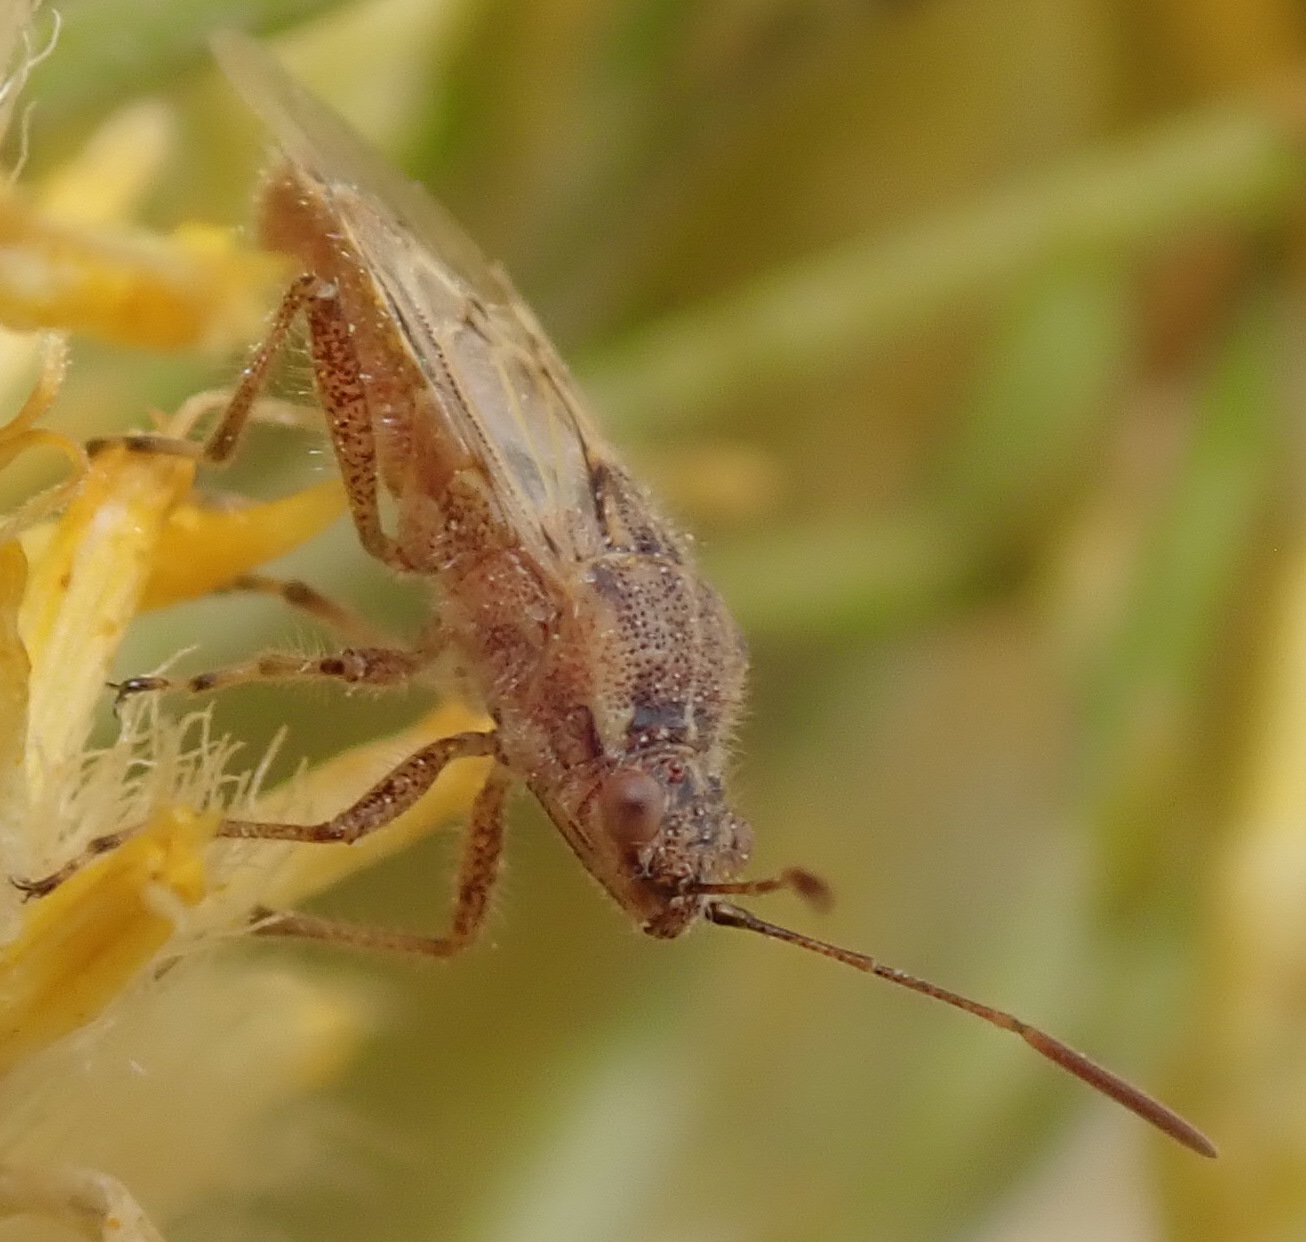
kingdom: Animalia
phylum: Arthropoda
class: Insecta
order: Hemiptera
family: Rhopalidae
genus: Liorhyssus
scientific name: Liorhyssus hyalinus
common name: Scentless plant bug
